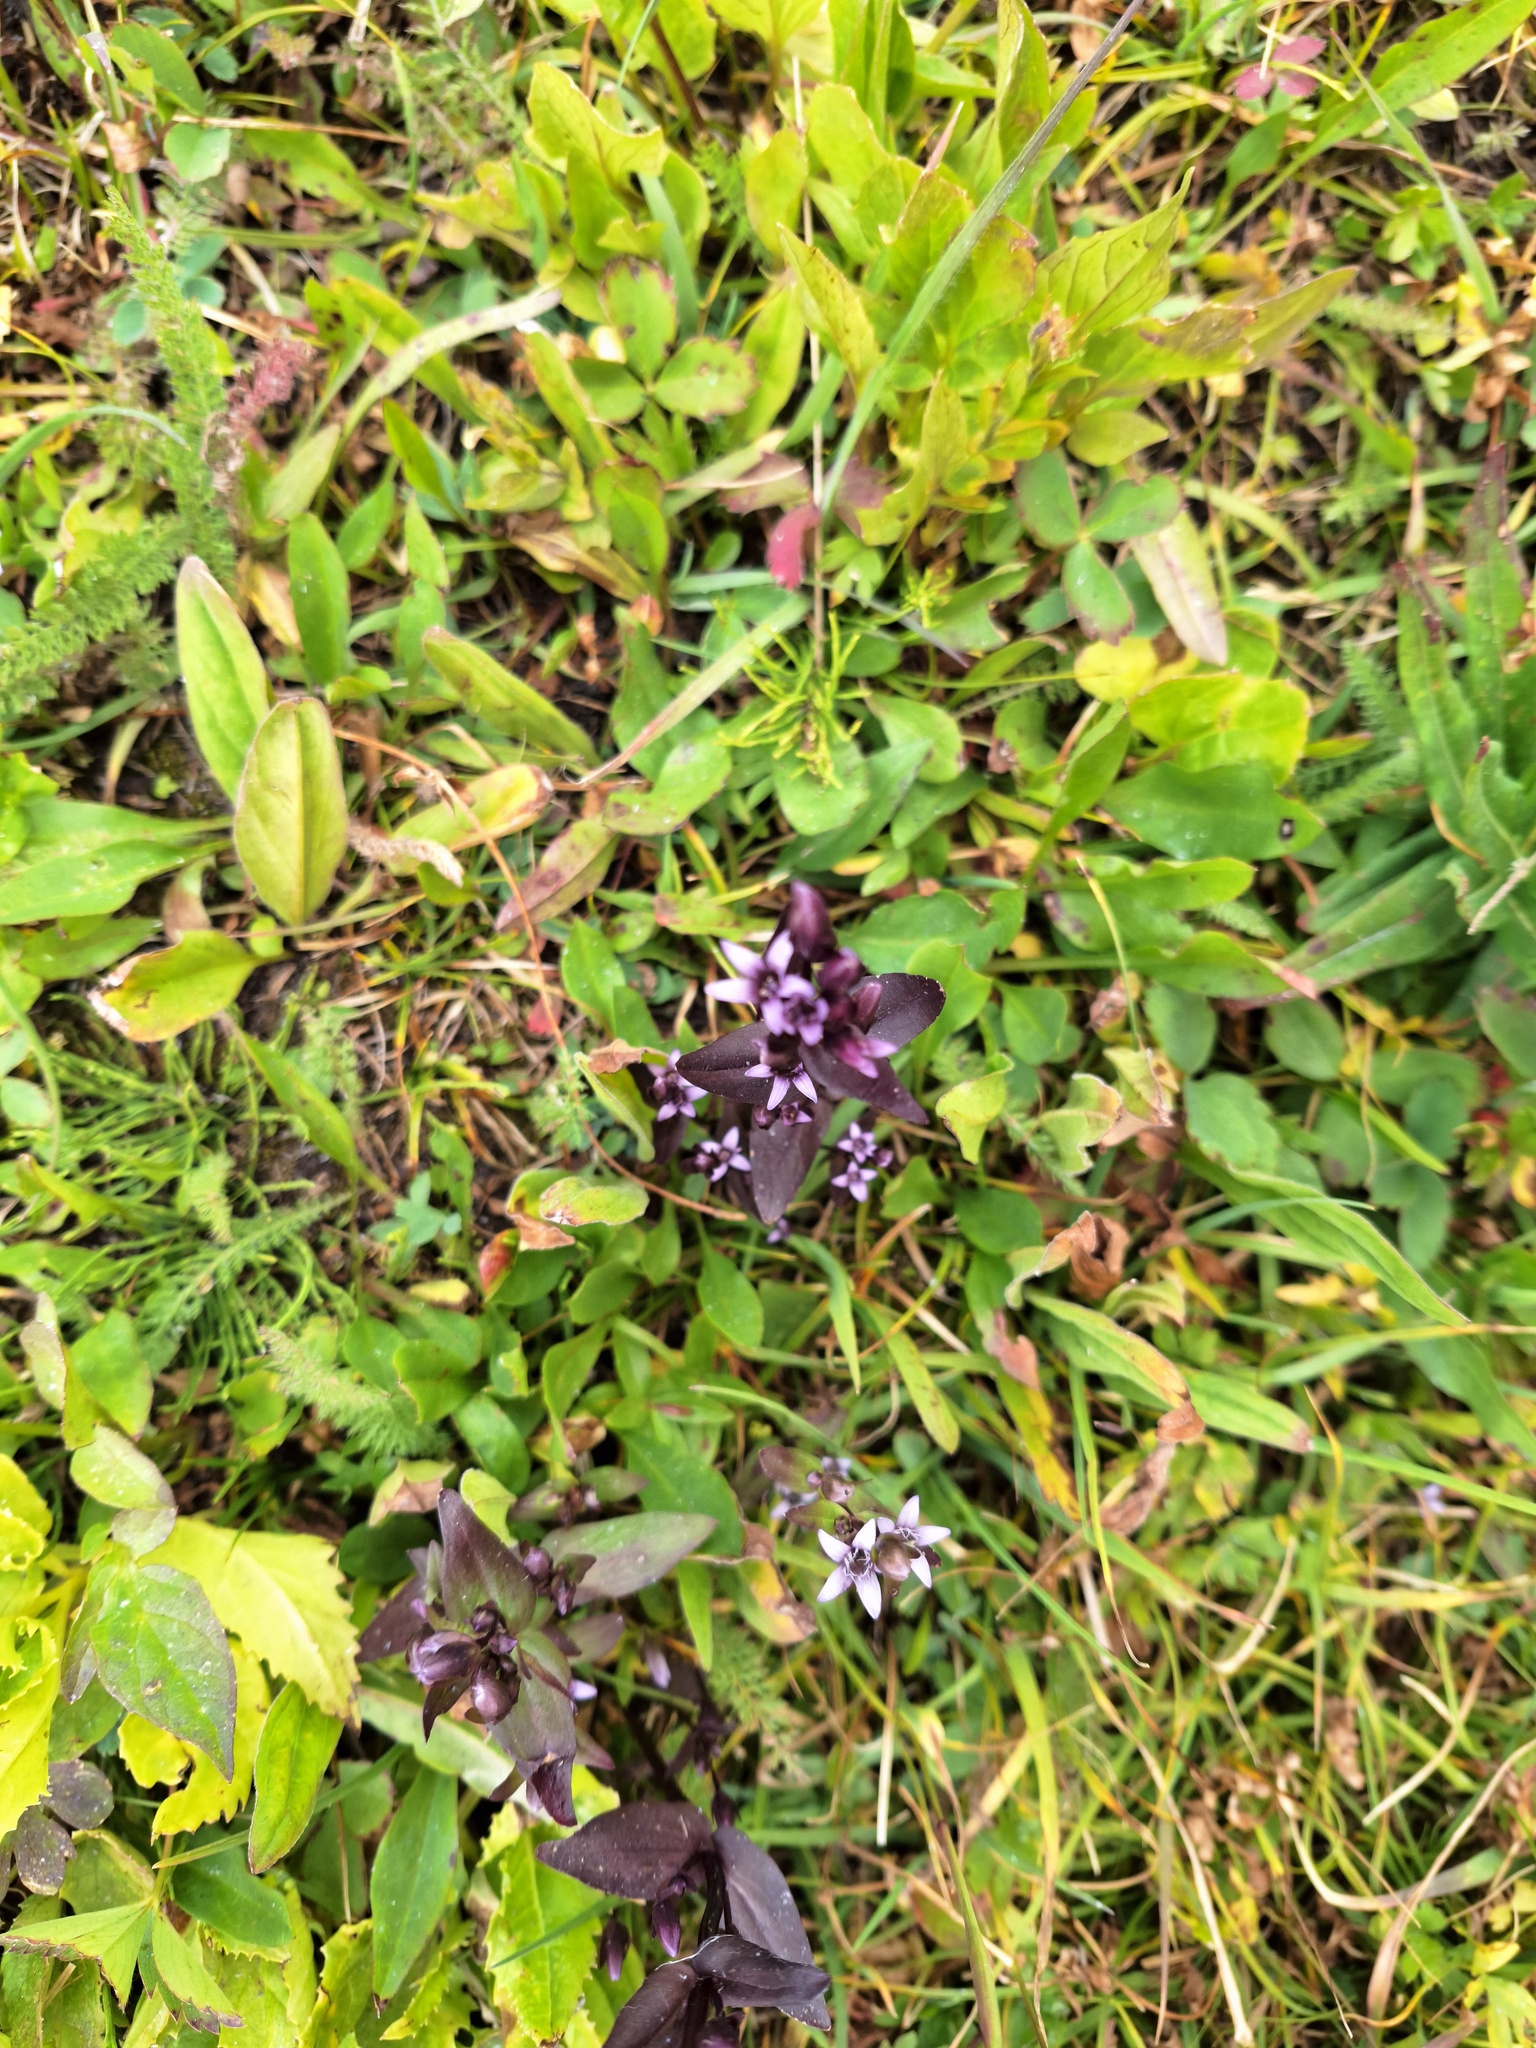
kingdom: Plantae
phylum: Tracheophyta
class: Magnoliopsida
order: Gentianales
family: Gentianaceae
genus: Gentianella
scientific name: Gentianella amarella
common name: Autumn gentian
